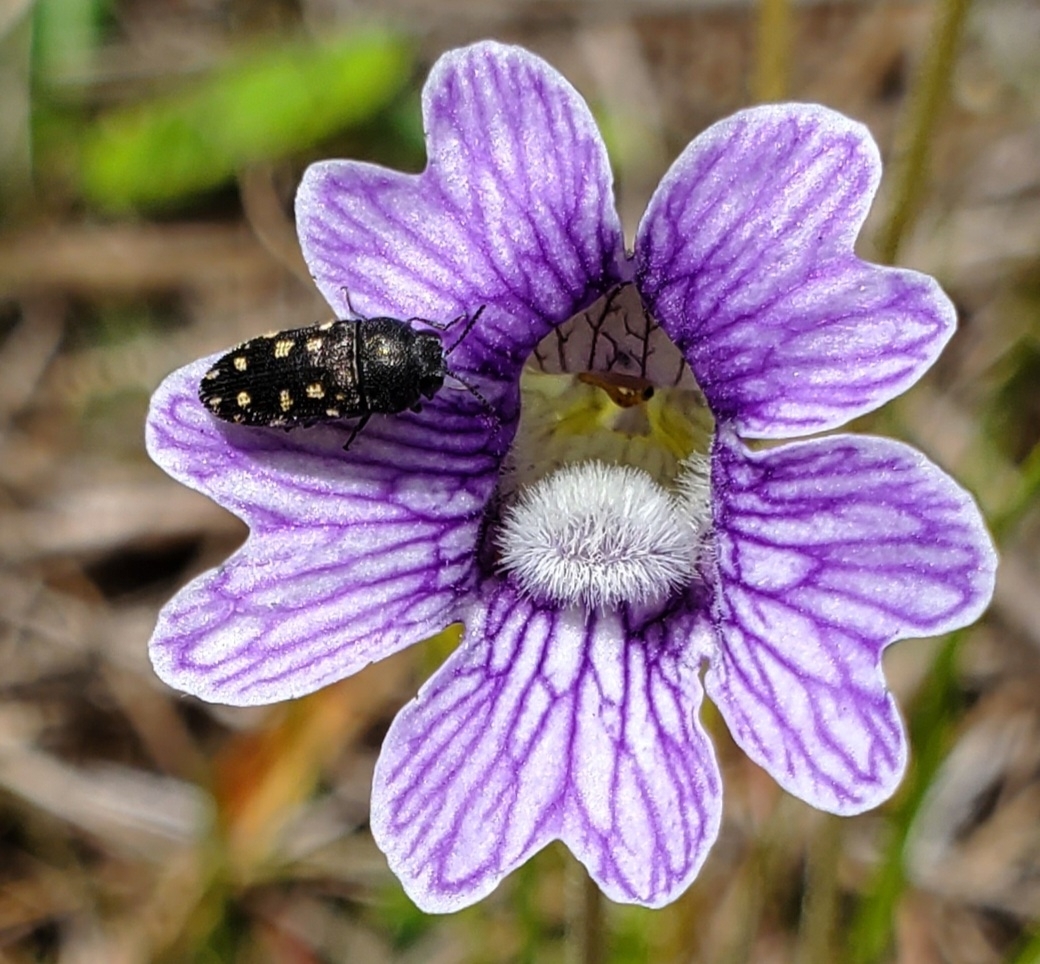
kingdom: Animalia
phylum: Arthropoda
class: Insecta
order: Coleoptera
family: Buprestidae
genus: Acmaeodera
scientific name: Acmaeodera tubulus
